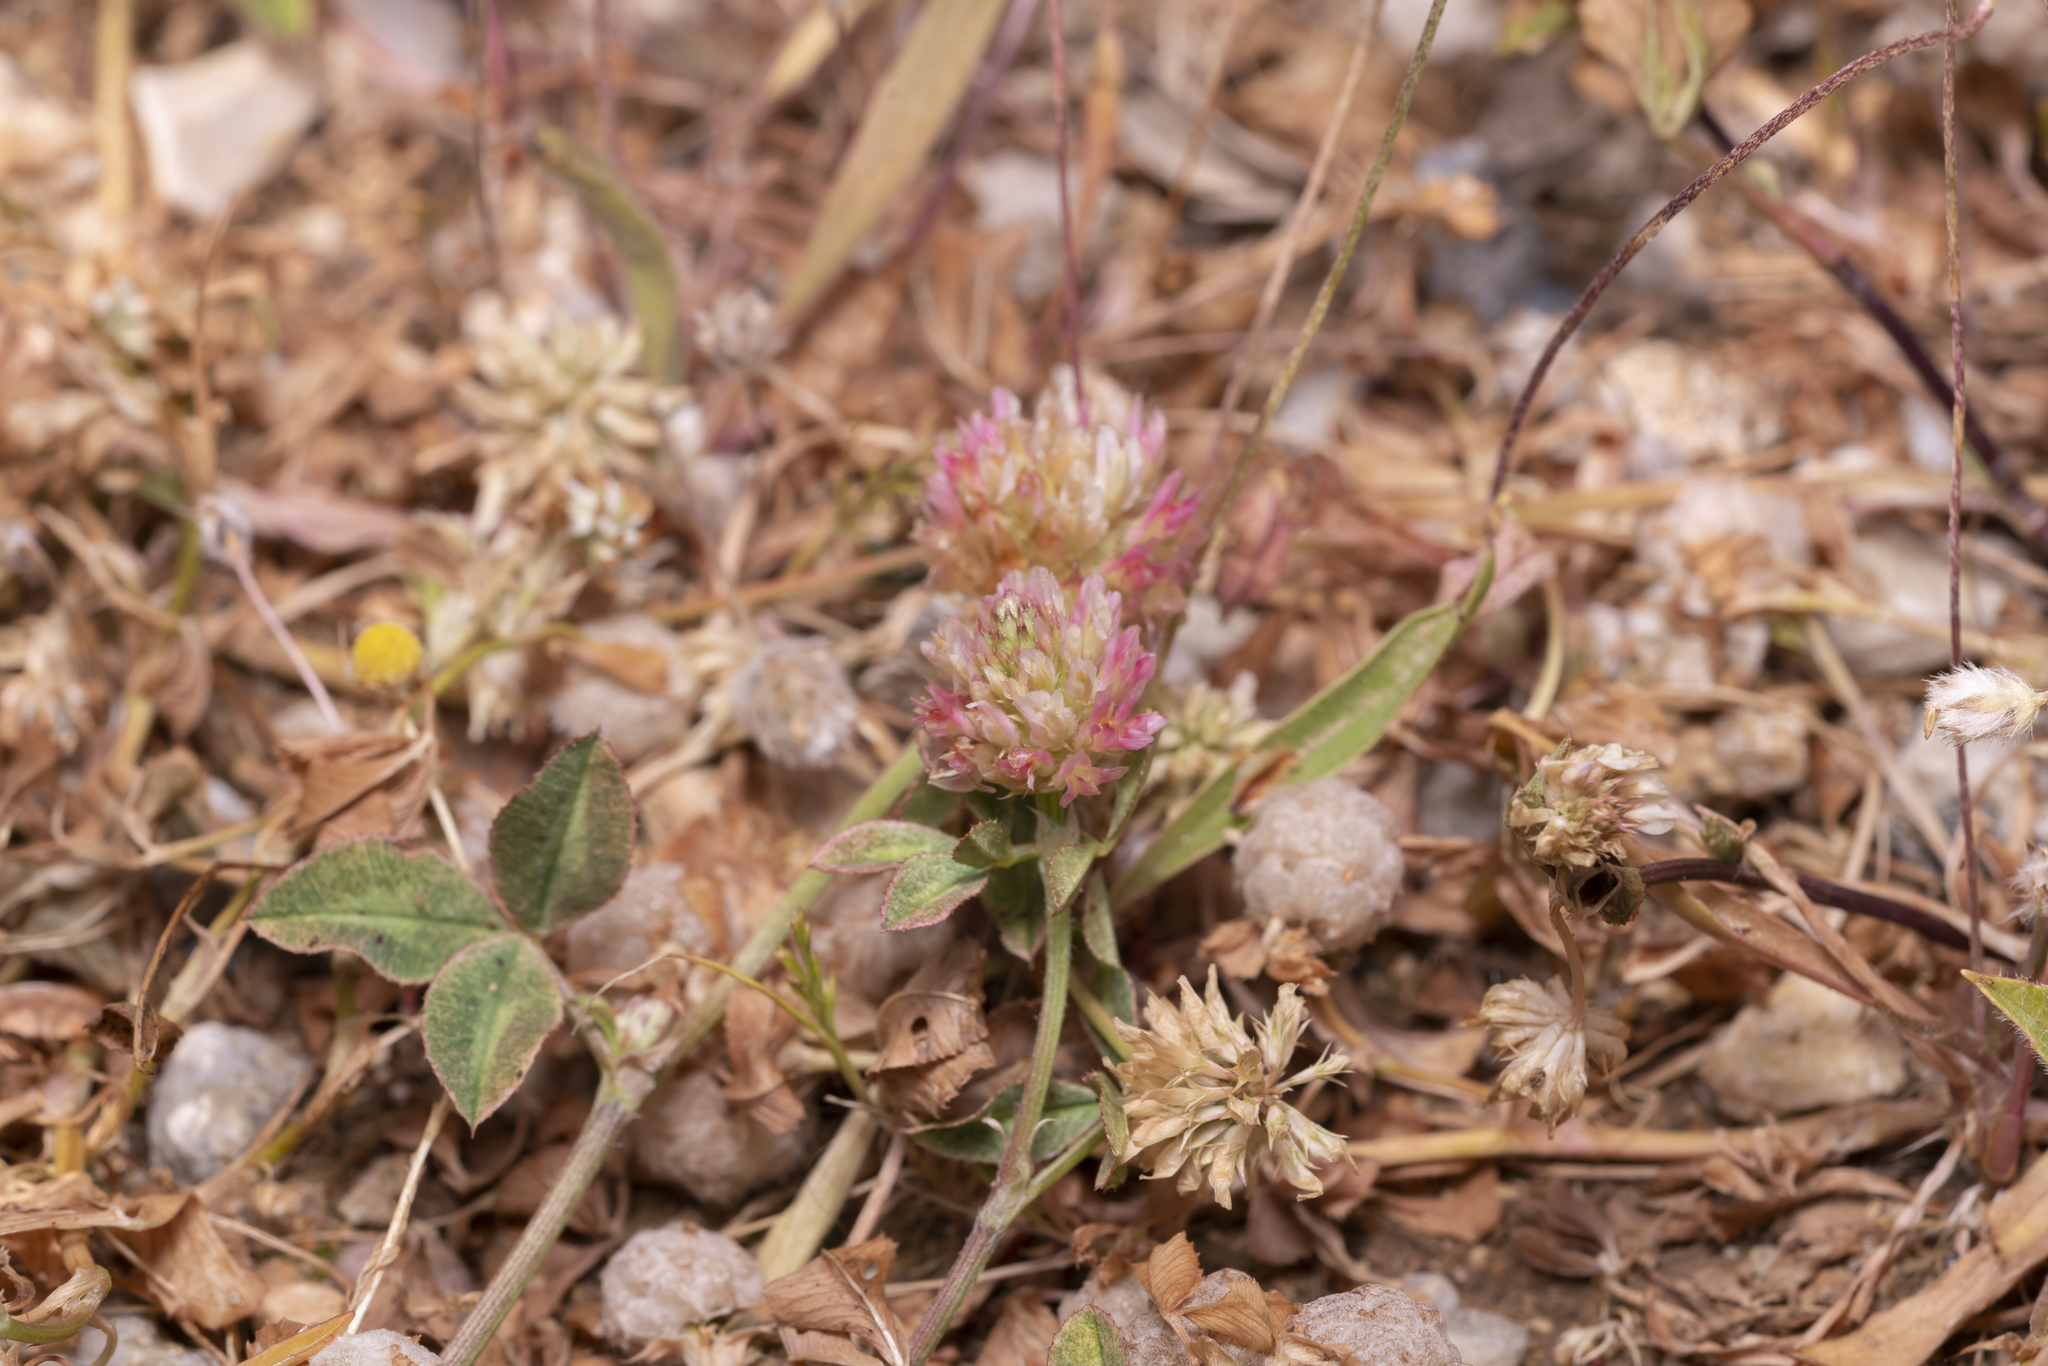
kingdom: Plantae
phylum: Tracheophyta
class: Magnoliopsida
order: Fabales
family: Fabaceae
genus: Trifolium
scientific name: Trifolium argutum
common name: Sharp-tooth clover
